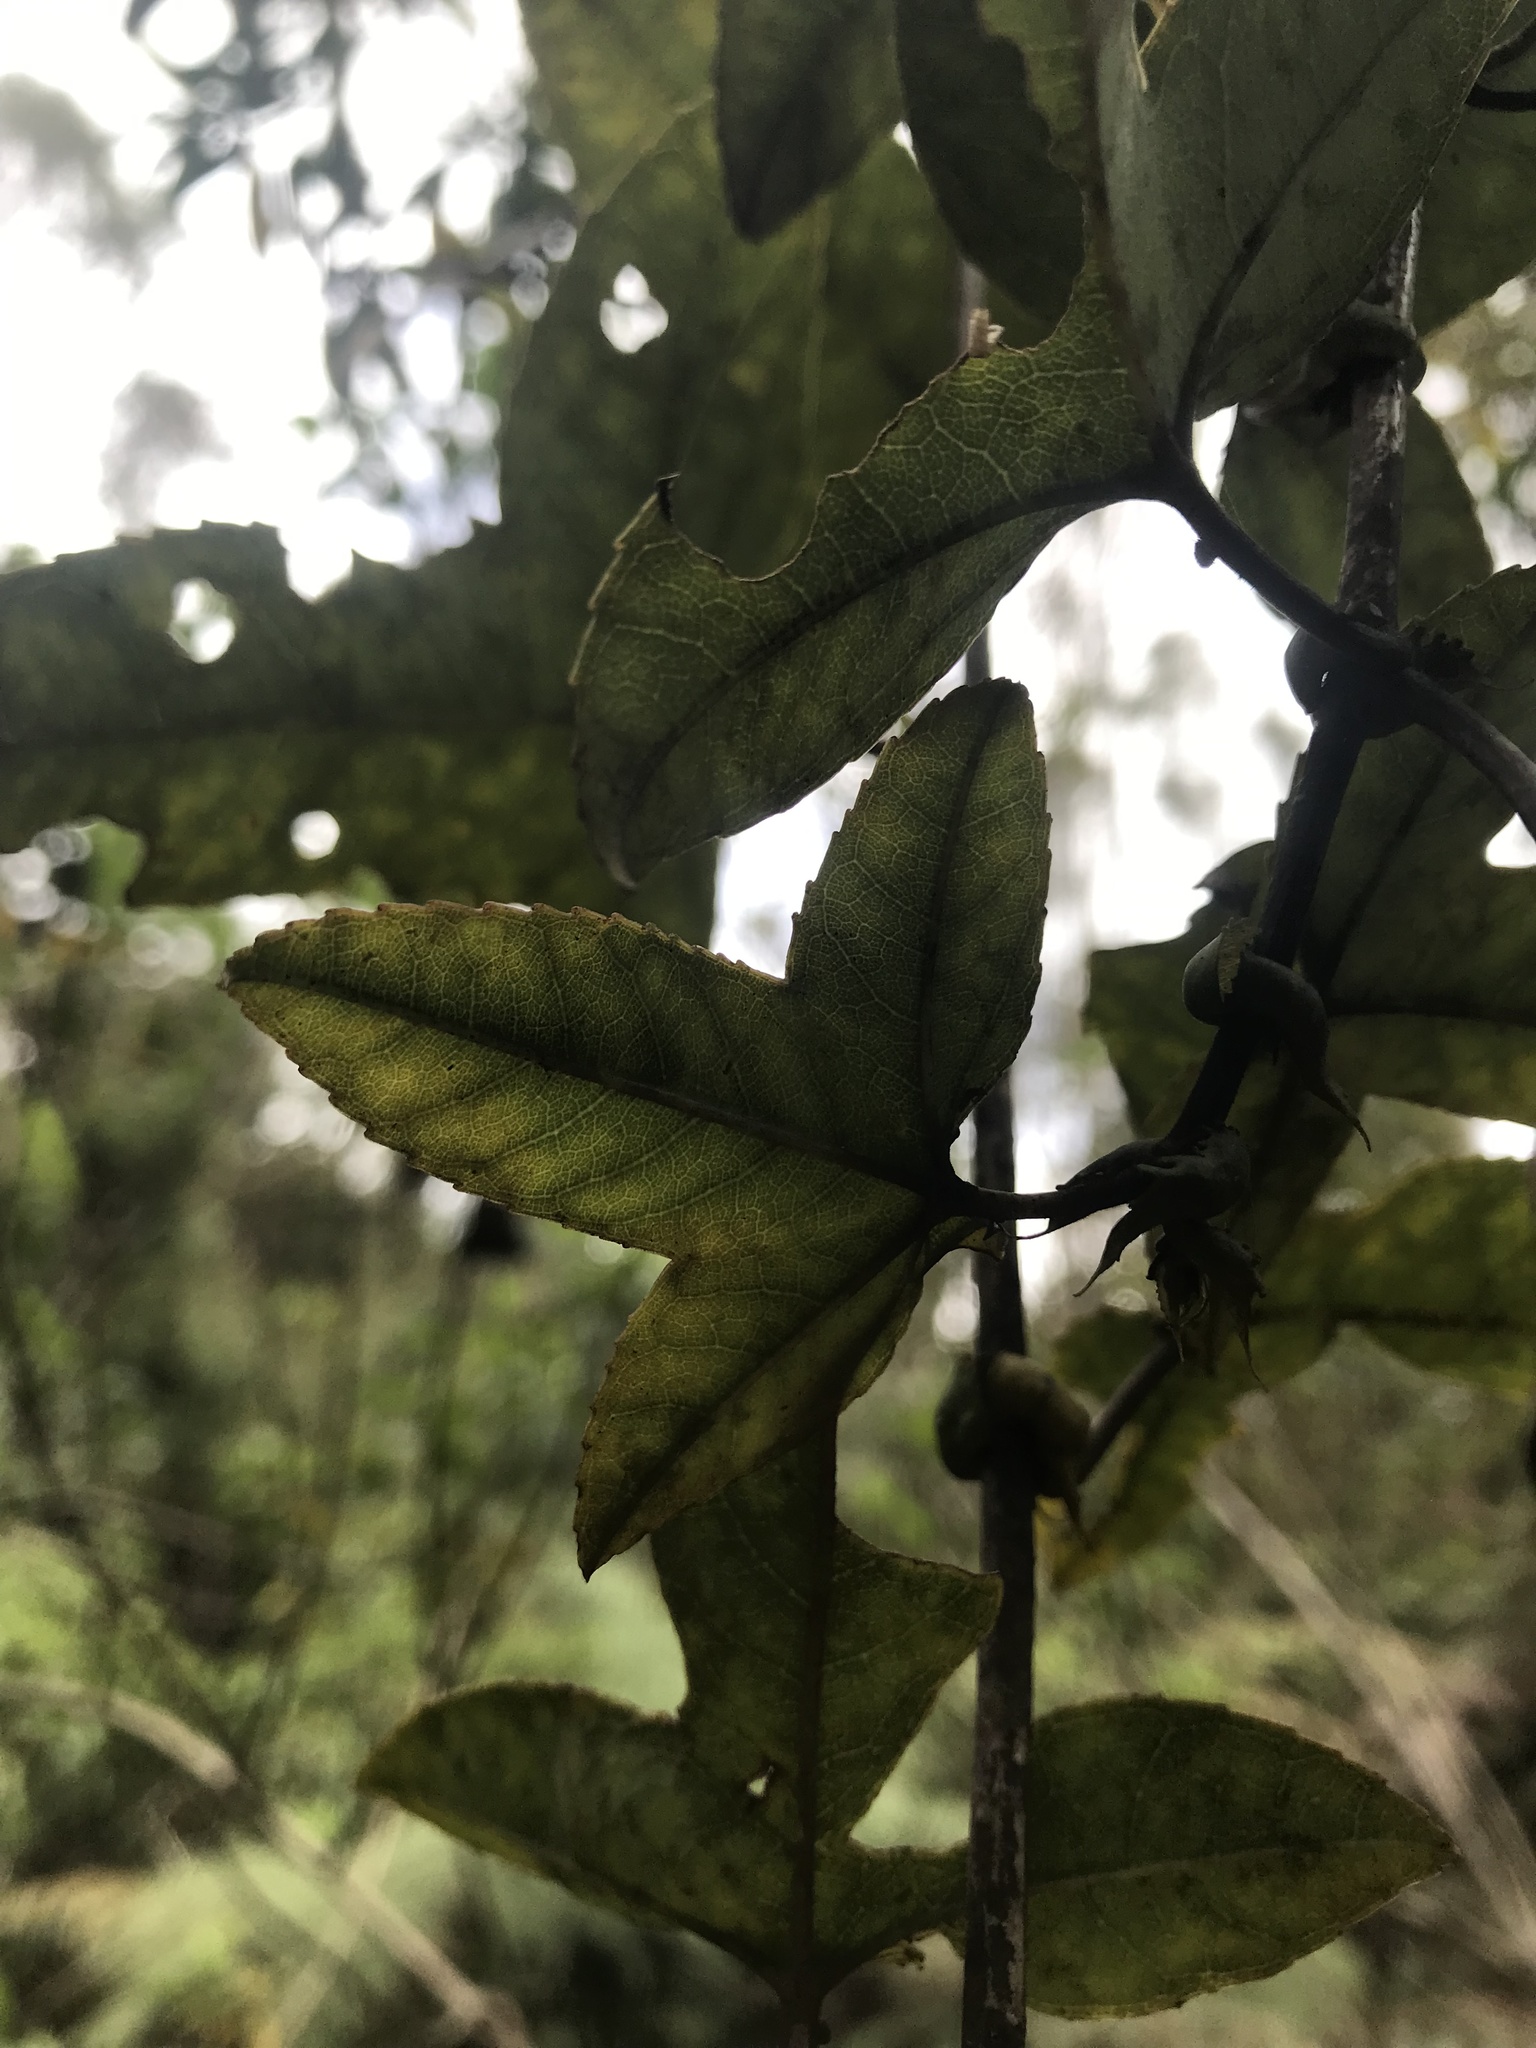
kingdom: Plantae
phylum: Tracheophyta
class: Magnoliopsida
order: Malpighiales
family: Passifloraceae
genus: Passiflora
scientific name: Passiflora cumbalensis
